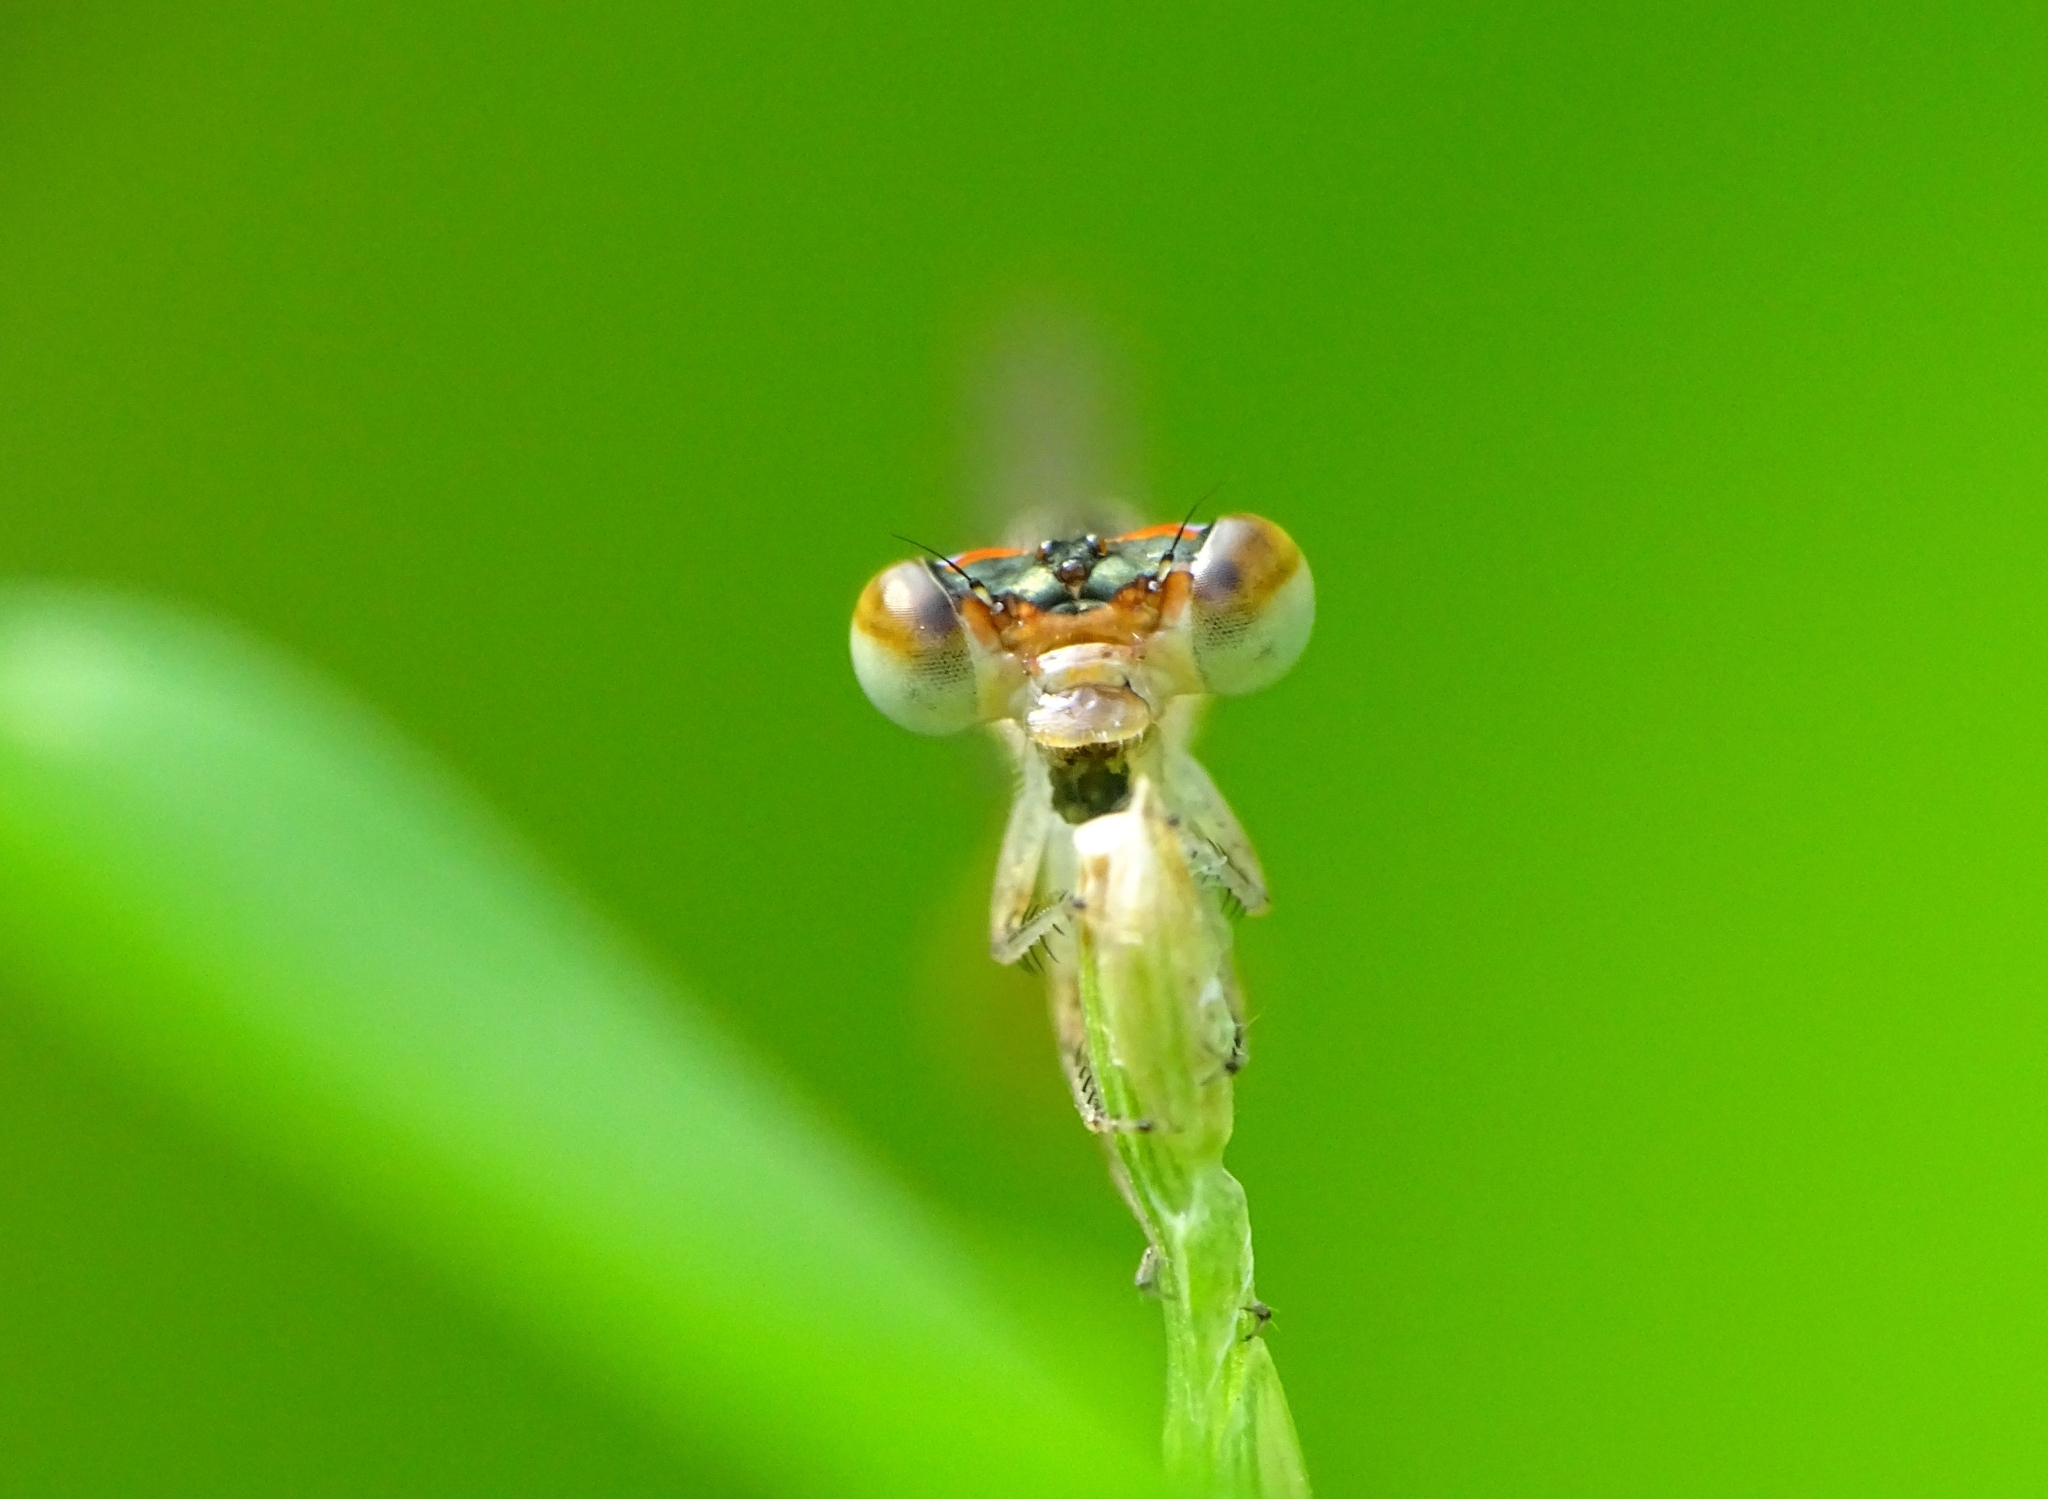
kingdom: Animalia
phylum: Arthropoda
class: Insecta
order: Odonata
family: Coenagrionidae
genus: Agriocnemis
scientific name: Agriocnemis pygmaea
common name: Pygmy wisp
